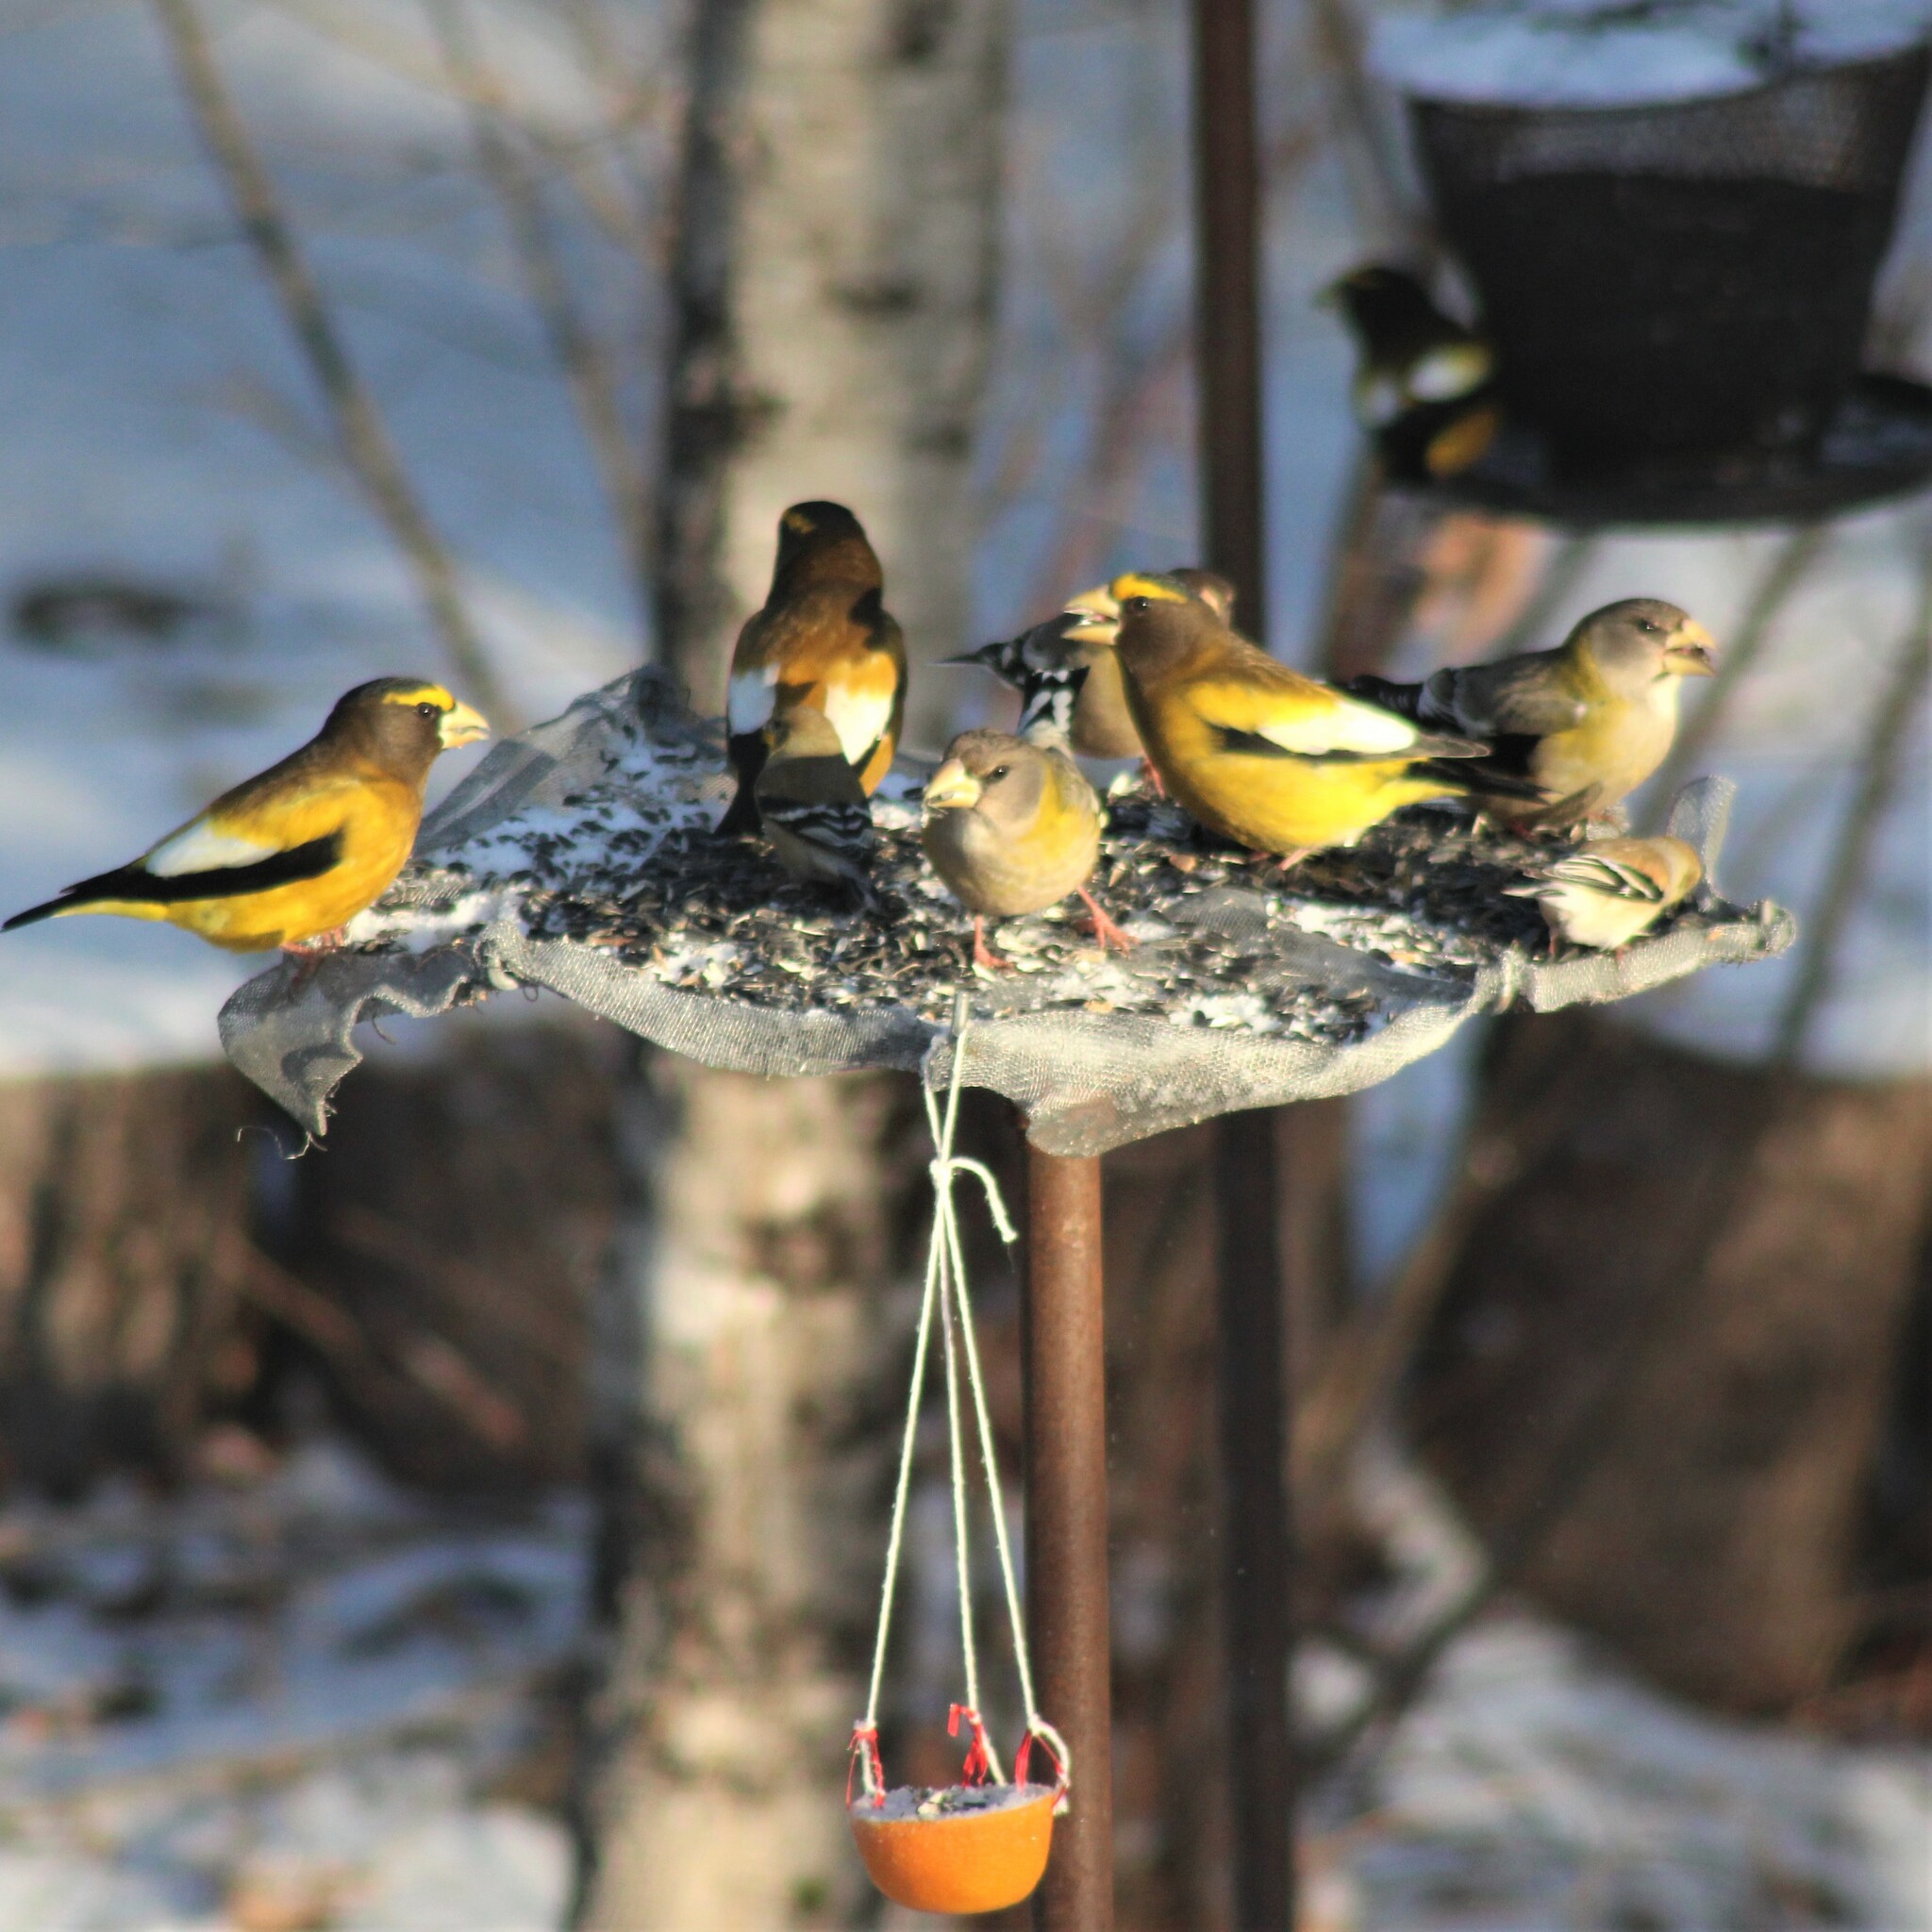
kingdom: Animalia
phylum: Chordata
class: Aves
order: Passeriformes
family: Fringillidae
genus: Hesperiphona
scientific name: Hesperiphona vespertina
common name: Evening grosbeak
